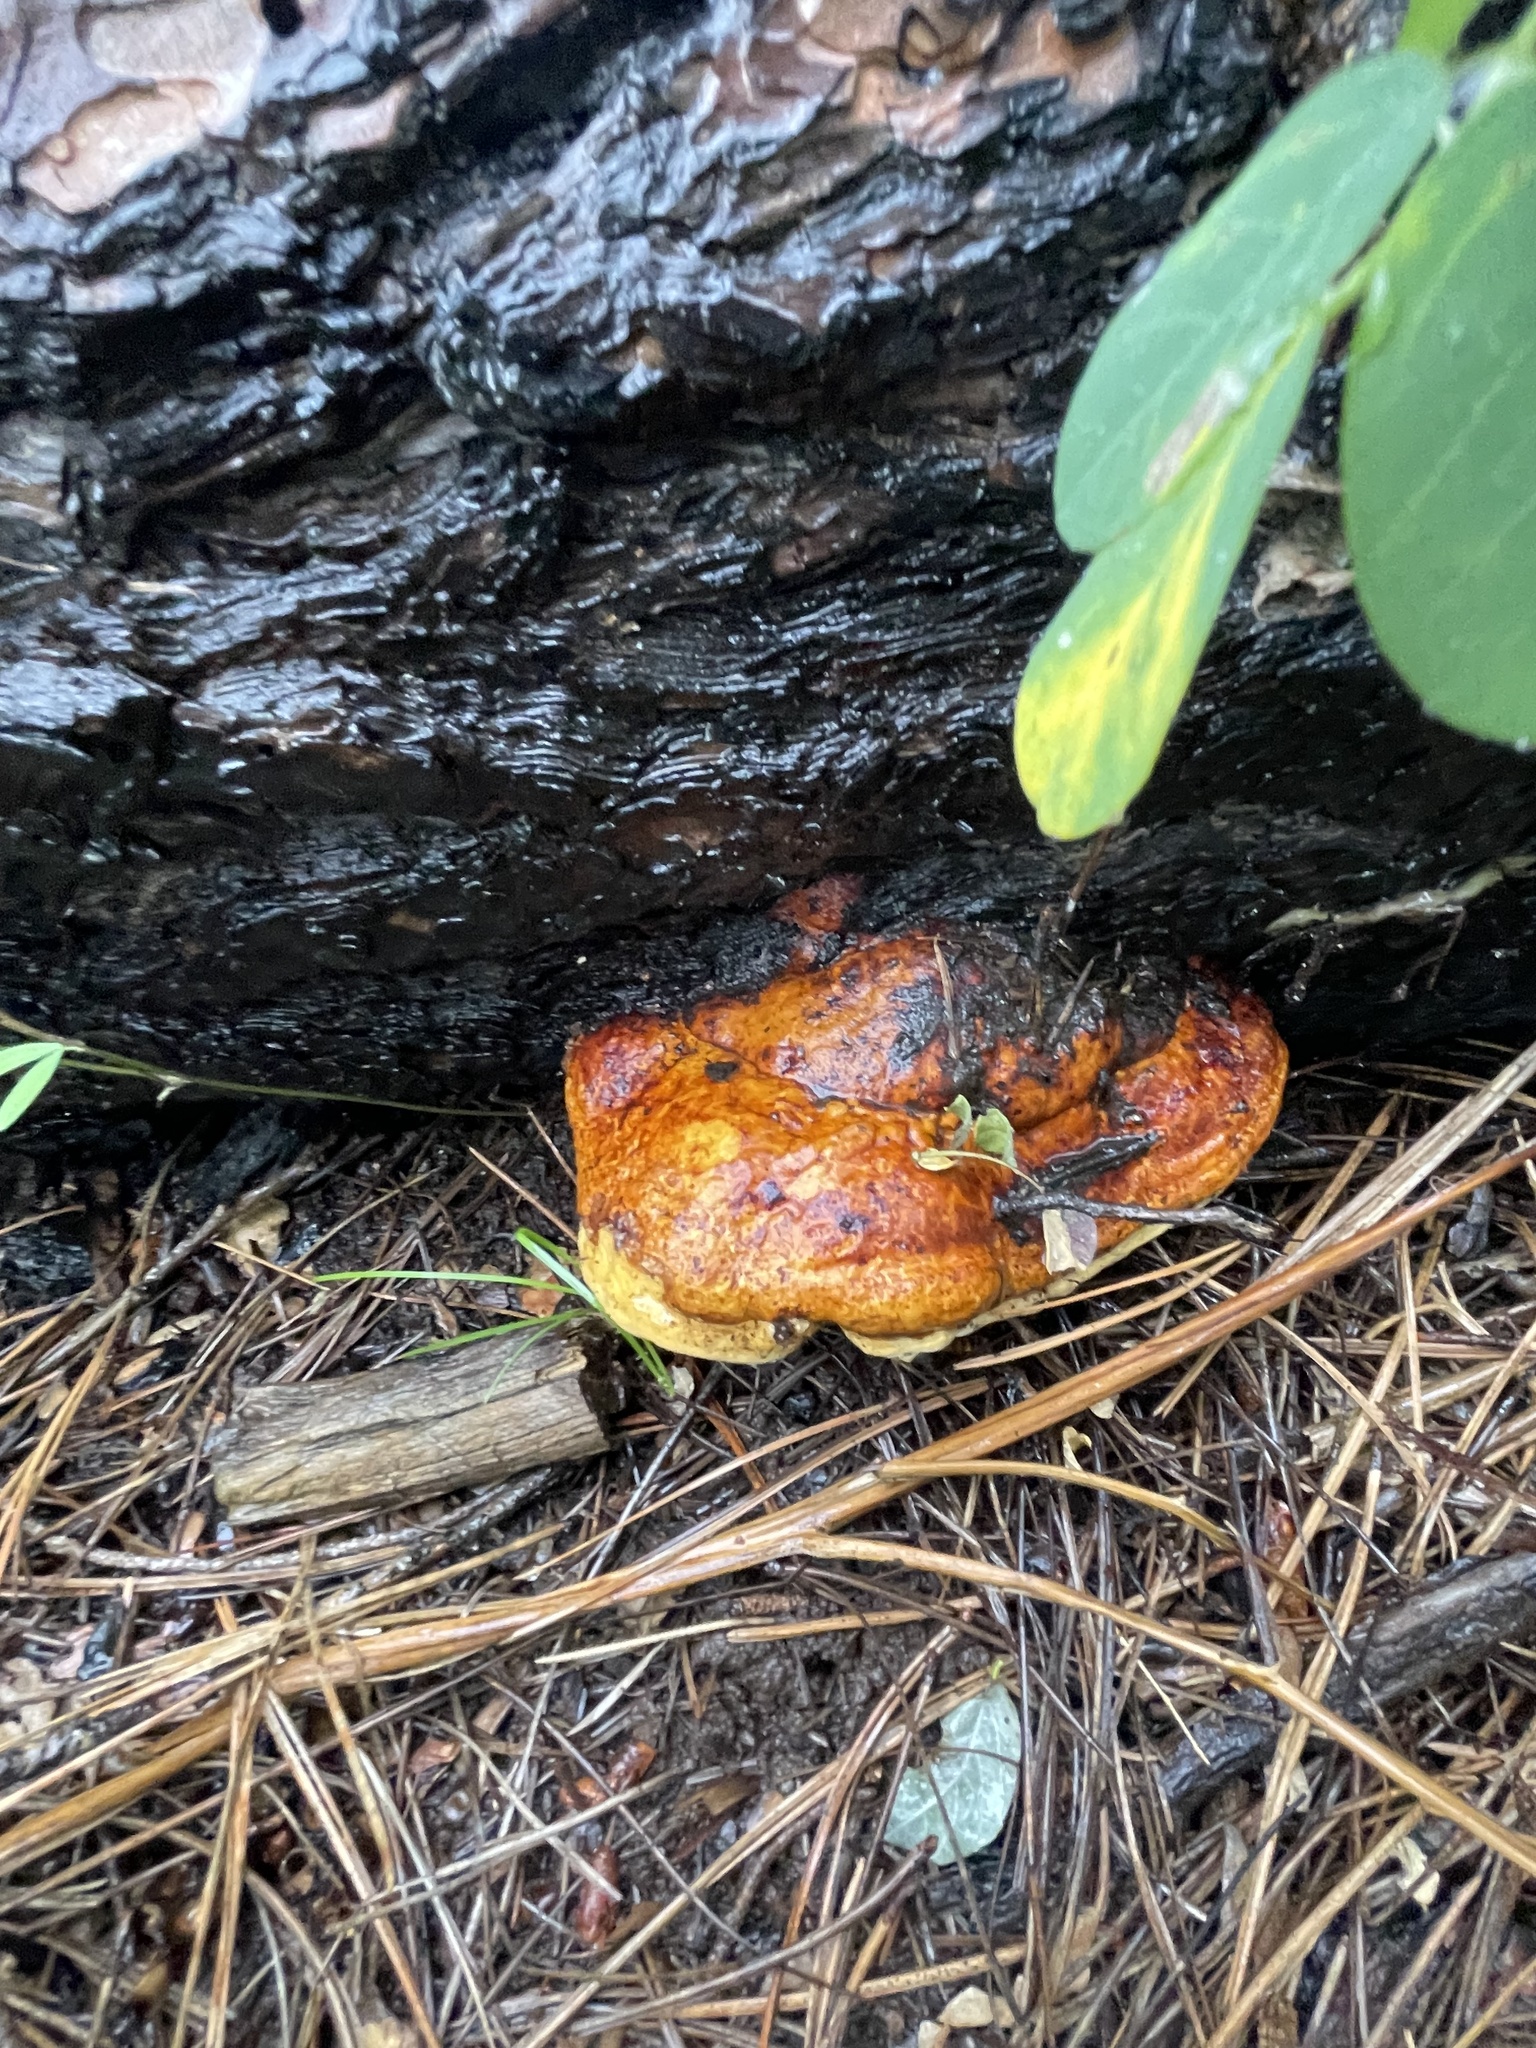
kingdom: Fungi
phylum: Basidiomycota
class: Agaricomycetes
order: Polyporales
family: Fomitopsidaceae
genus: Fomitopsis
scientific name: Fomitopsis schrenkii
